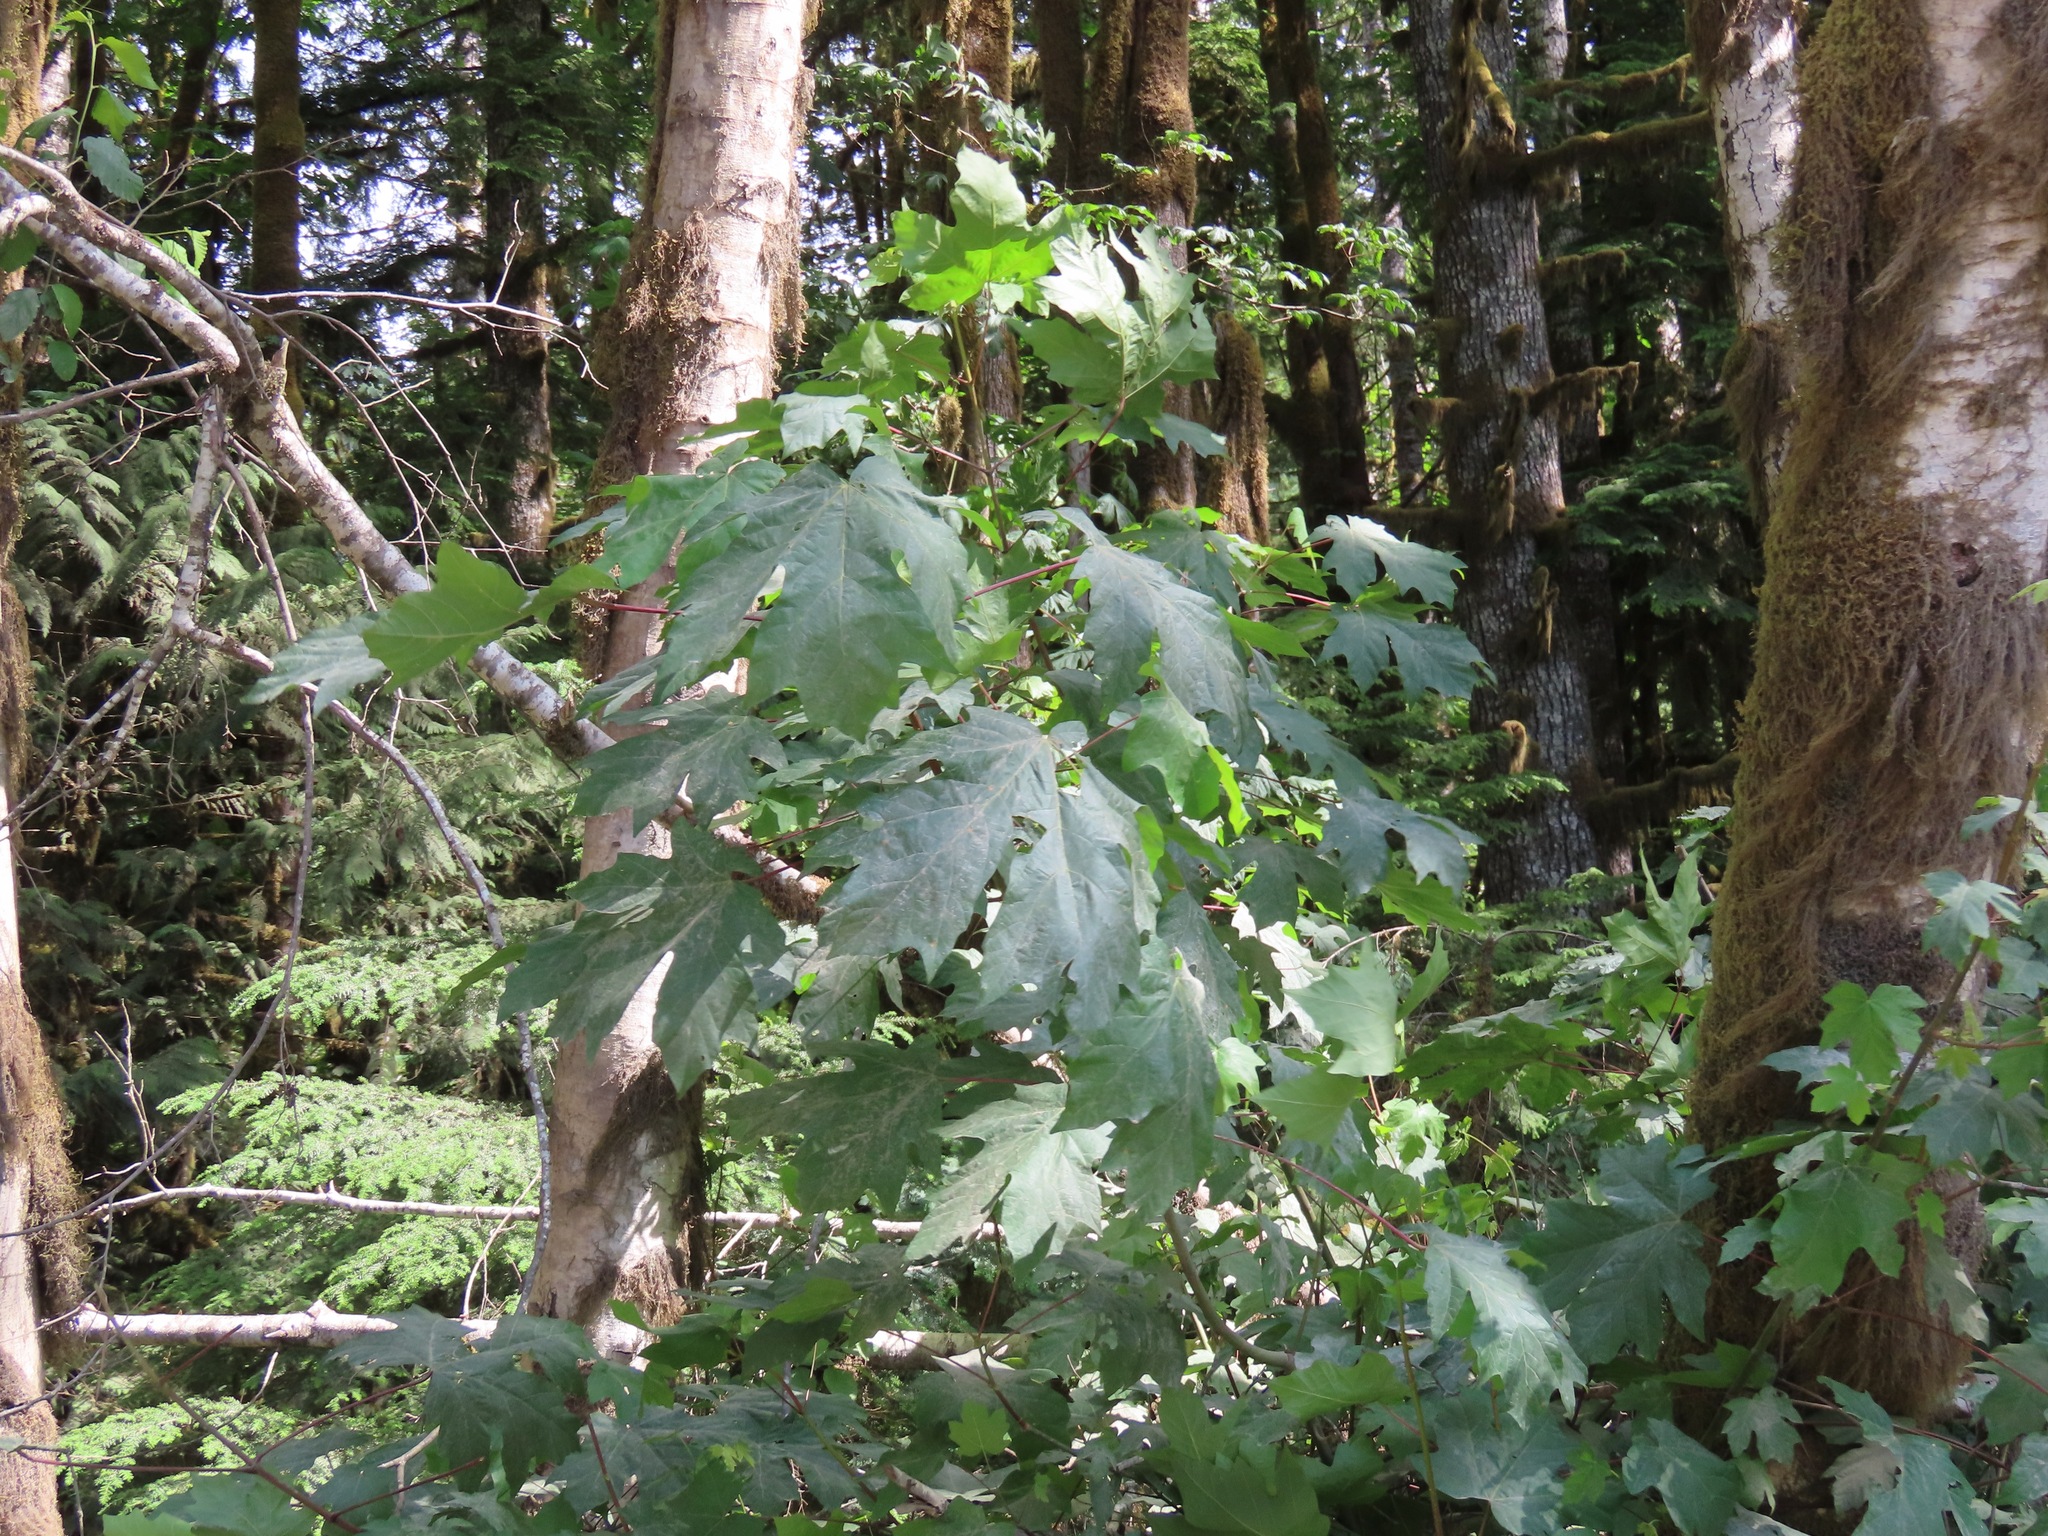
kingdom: Plantae
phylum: Tracheophyta
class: Magnoliopsida
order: Sapindales
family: Sapindaceae
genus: Acer
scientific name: Acer macrophyllum
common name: Oregon maple
